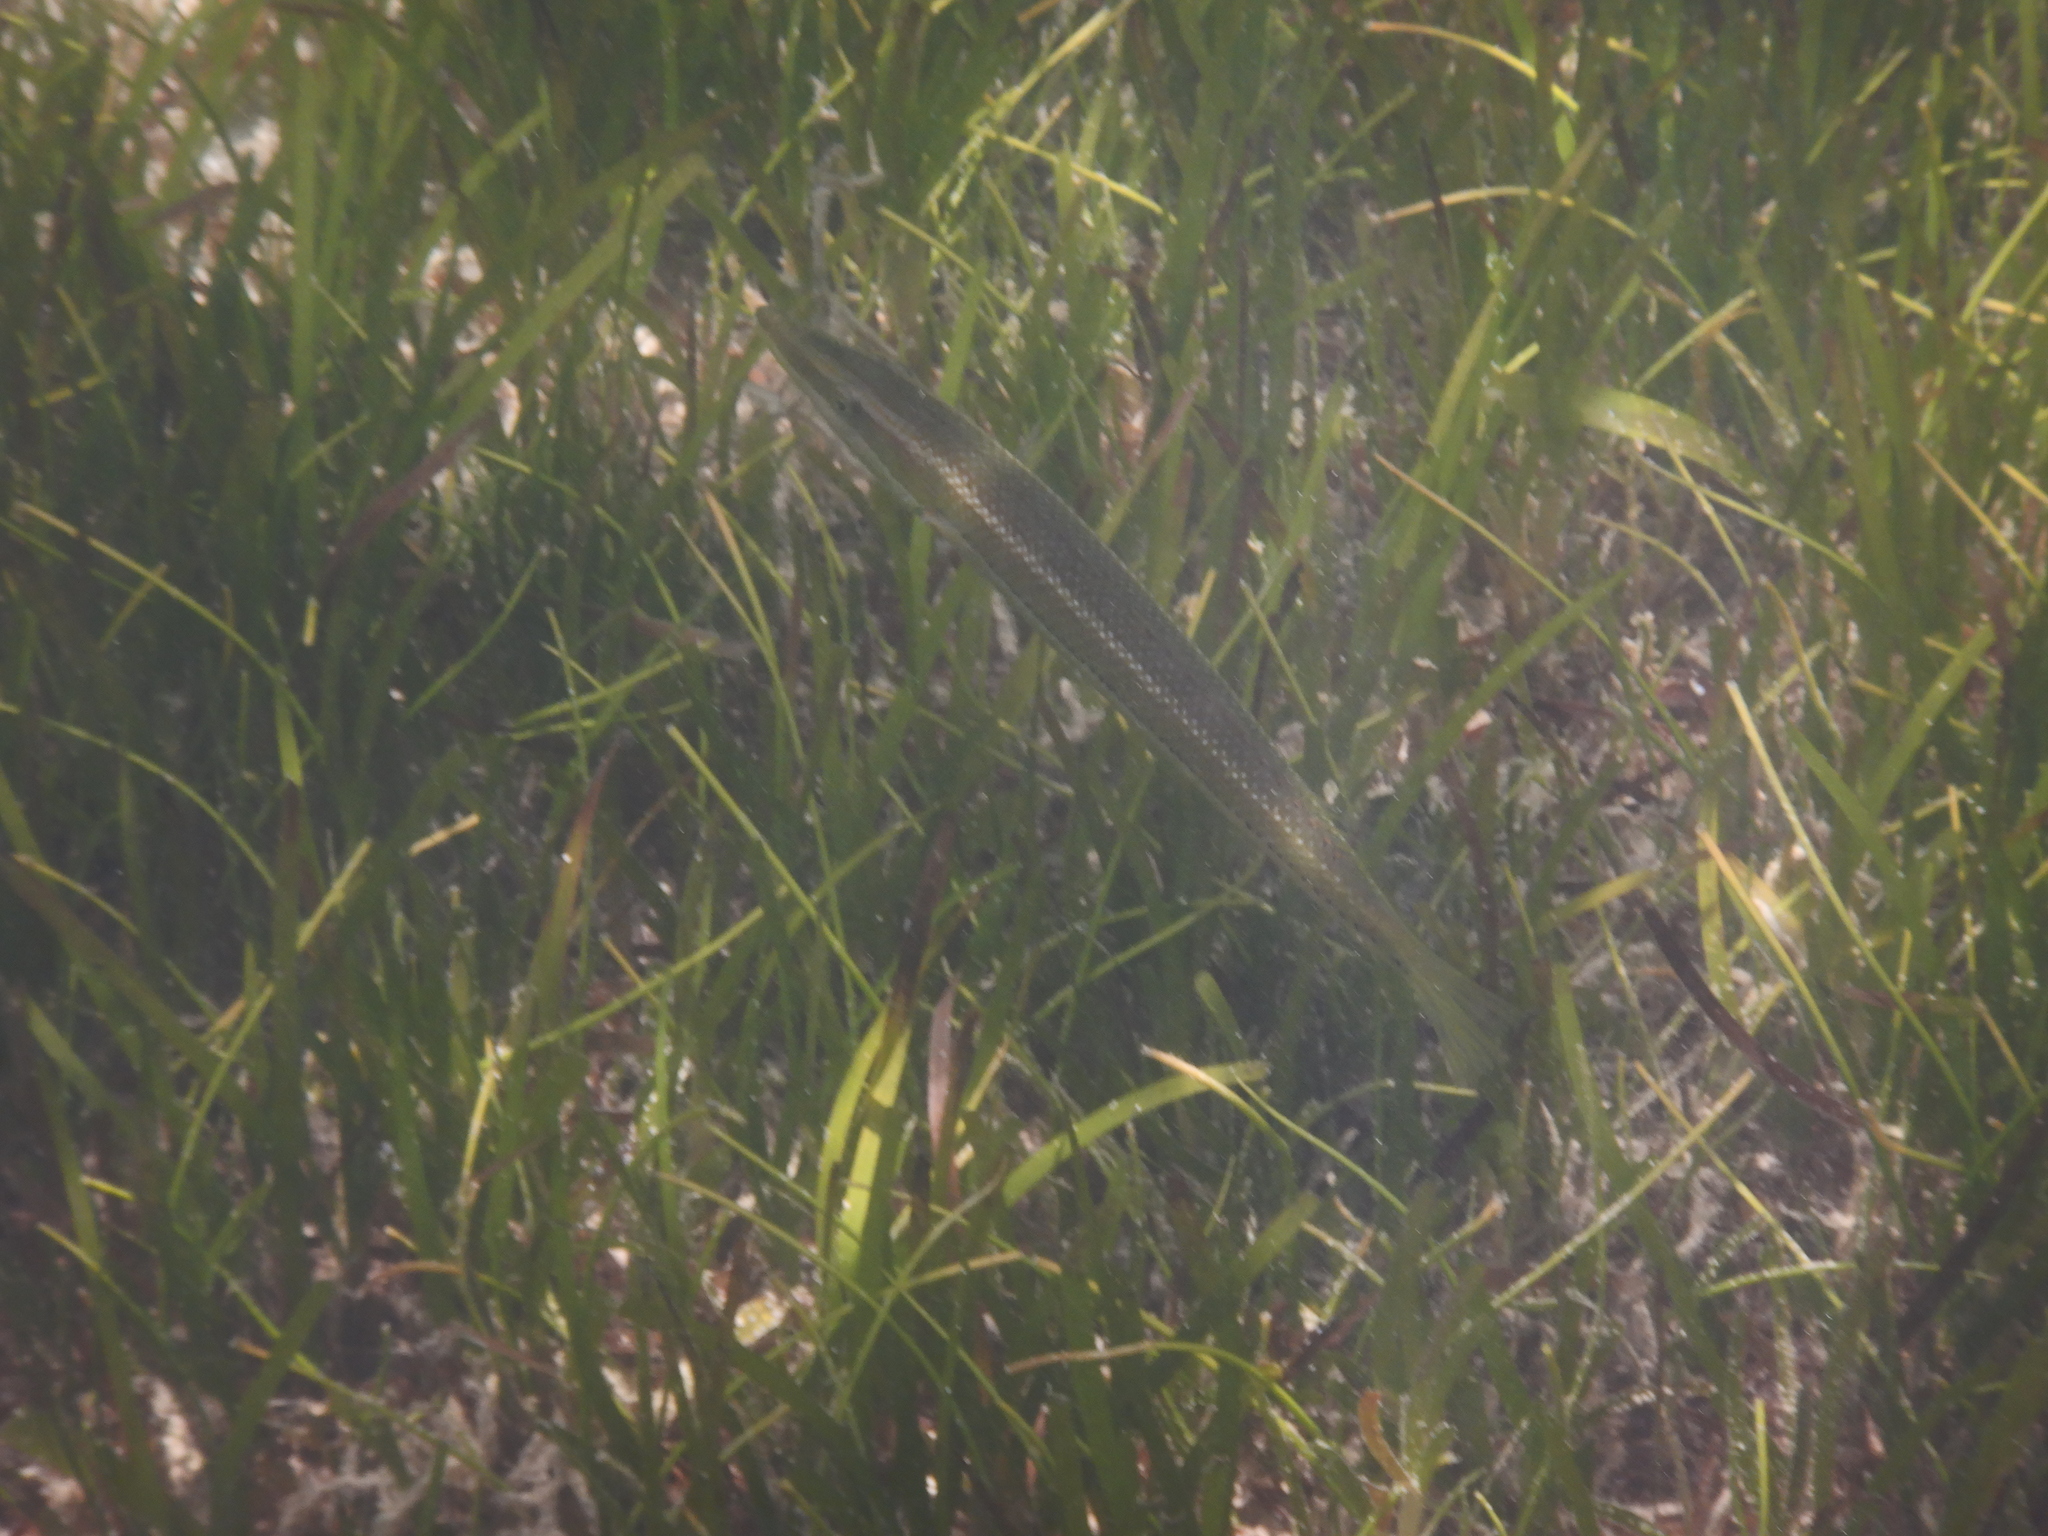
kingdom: Animalia
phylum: Chordata
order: Perciformes
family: Labridae
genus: Cheilio
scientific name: Cheilio inermis
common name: Cigar wrasse
